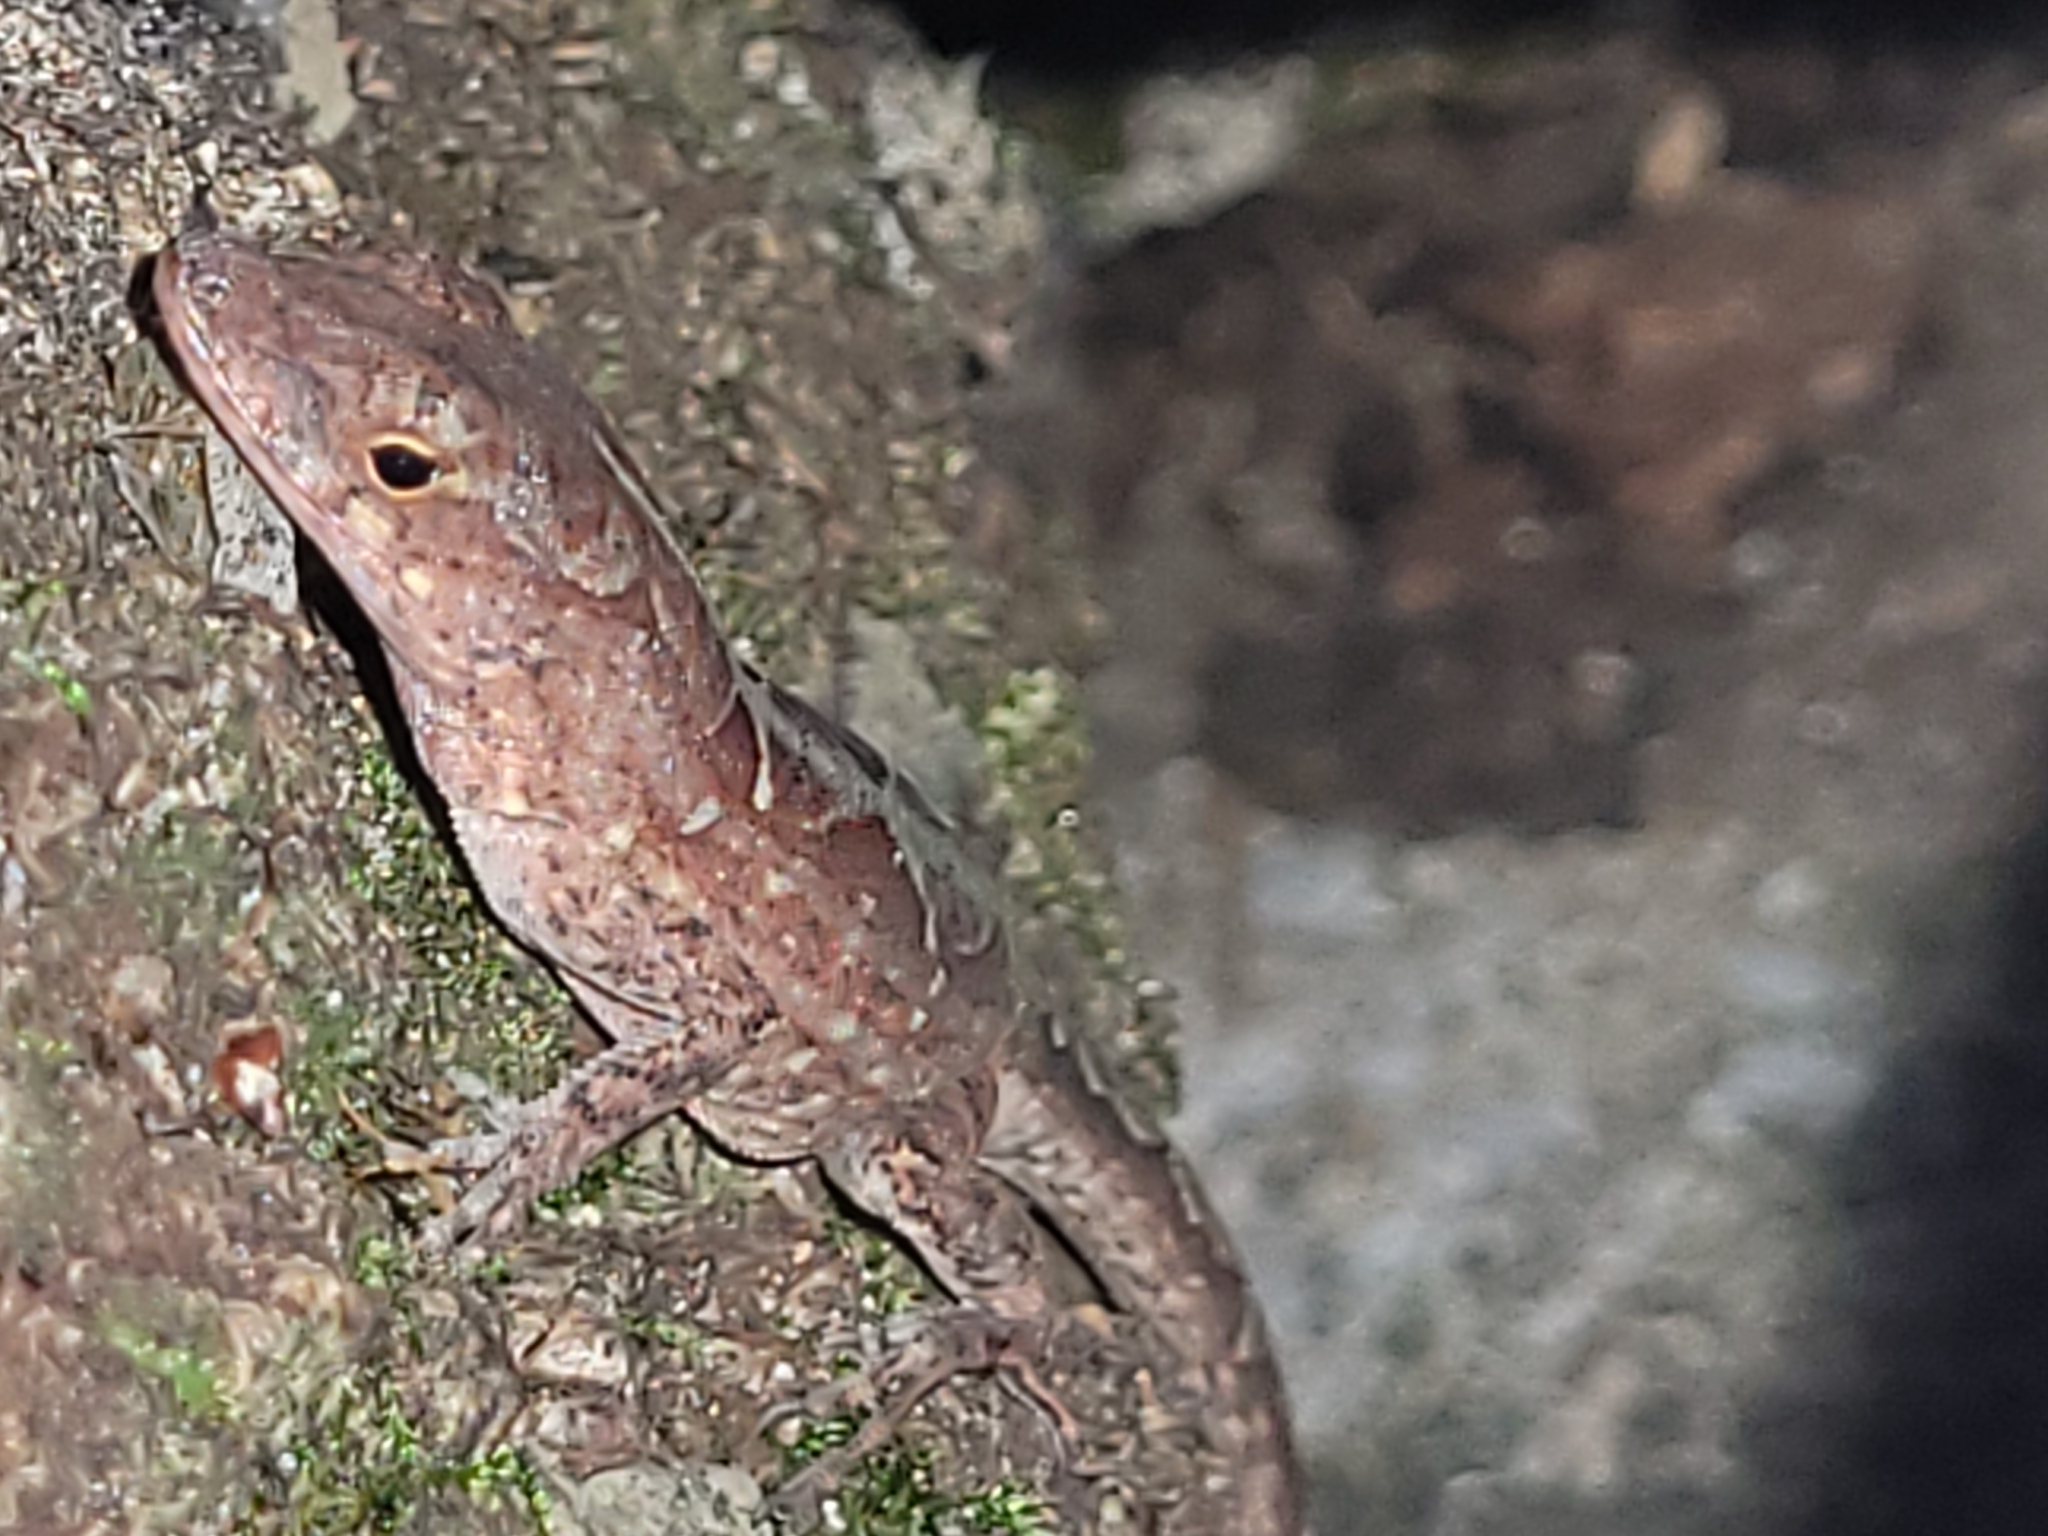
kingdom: Animalia
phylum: Chordata
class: Squamata
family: Dactyloidae
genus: Anolis
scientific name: Anolis sagrei
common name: Brown anole
